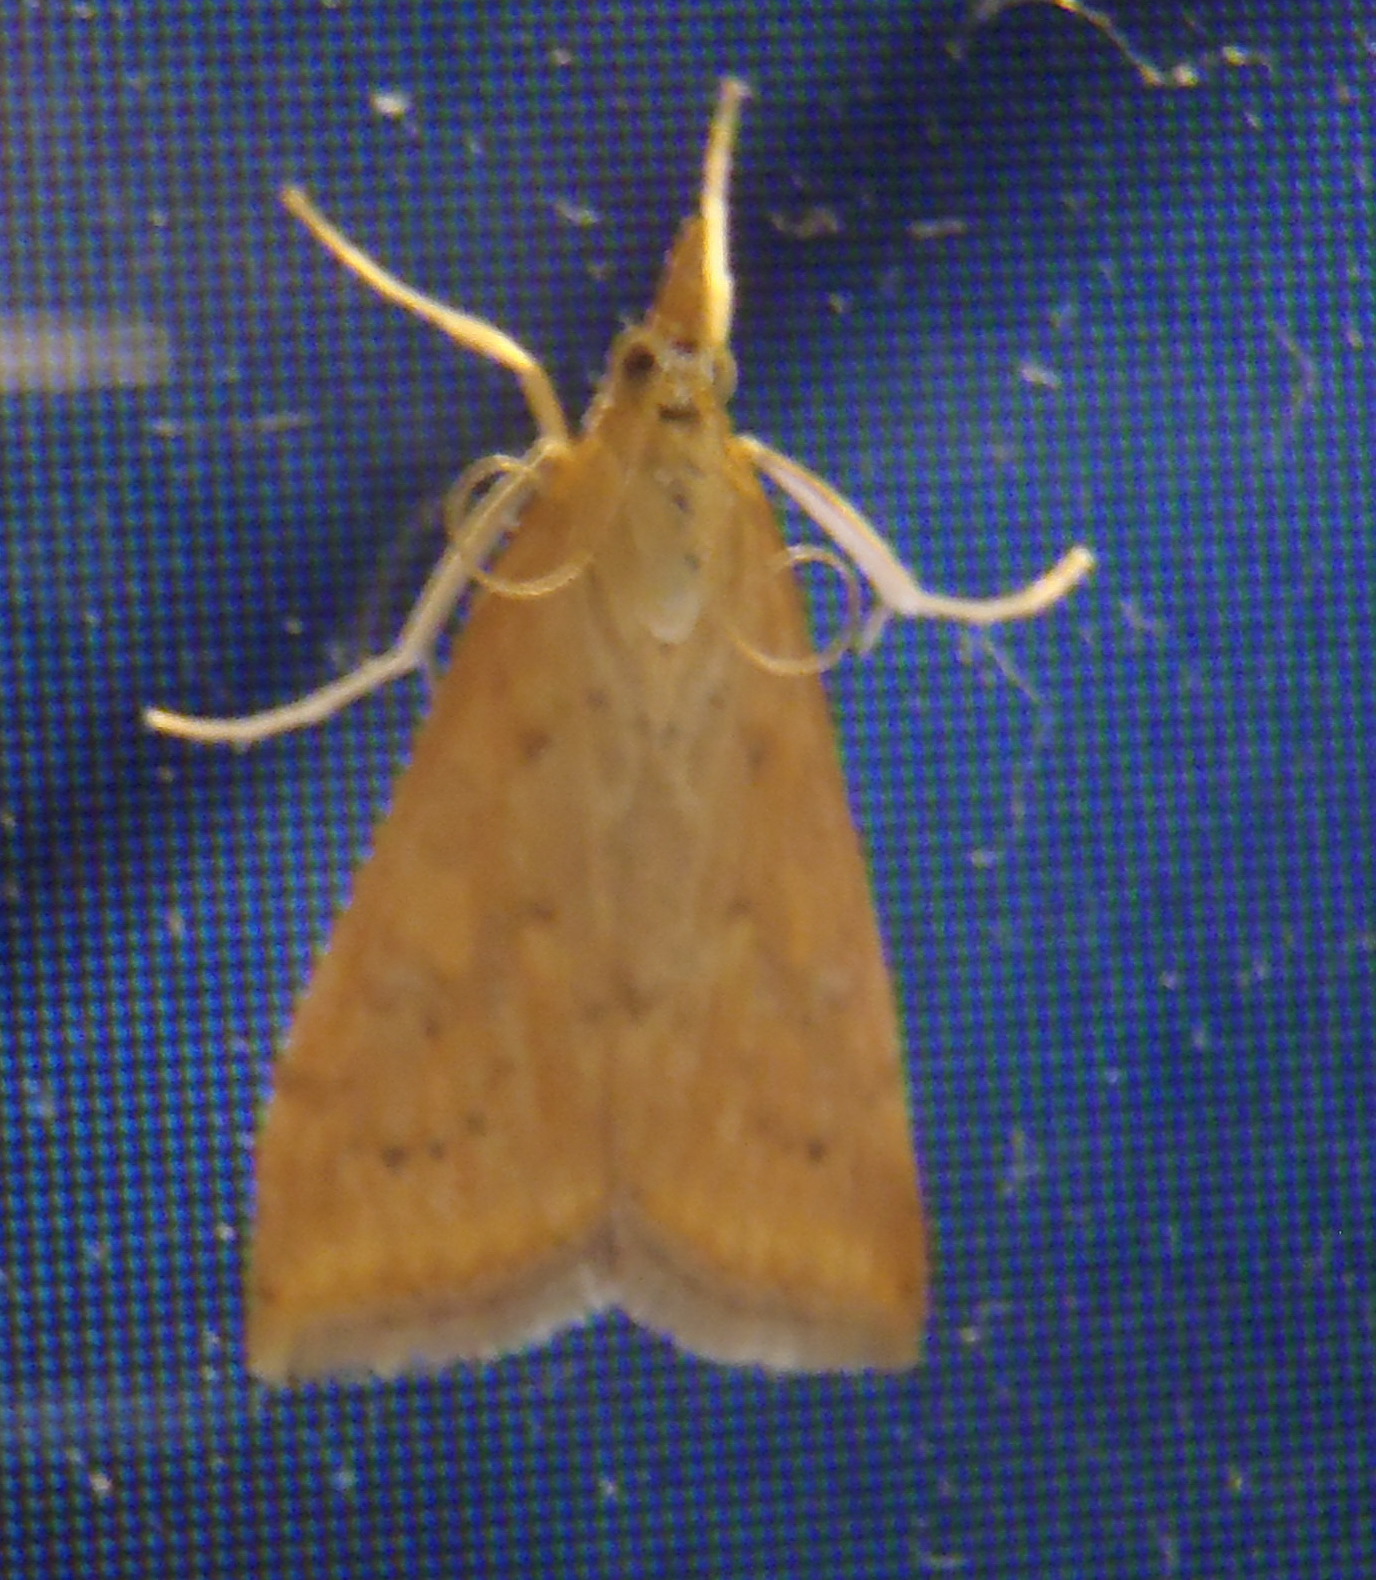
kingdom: Animalia
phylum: Arthropoda
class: Insecta
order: Lepidoptera
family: Crambidae
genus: Udea
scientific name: Udea ferrugalis
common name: Rusty dot
